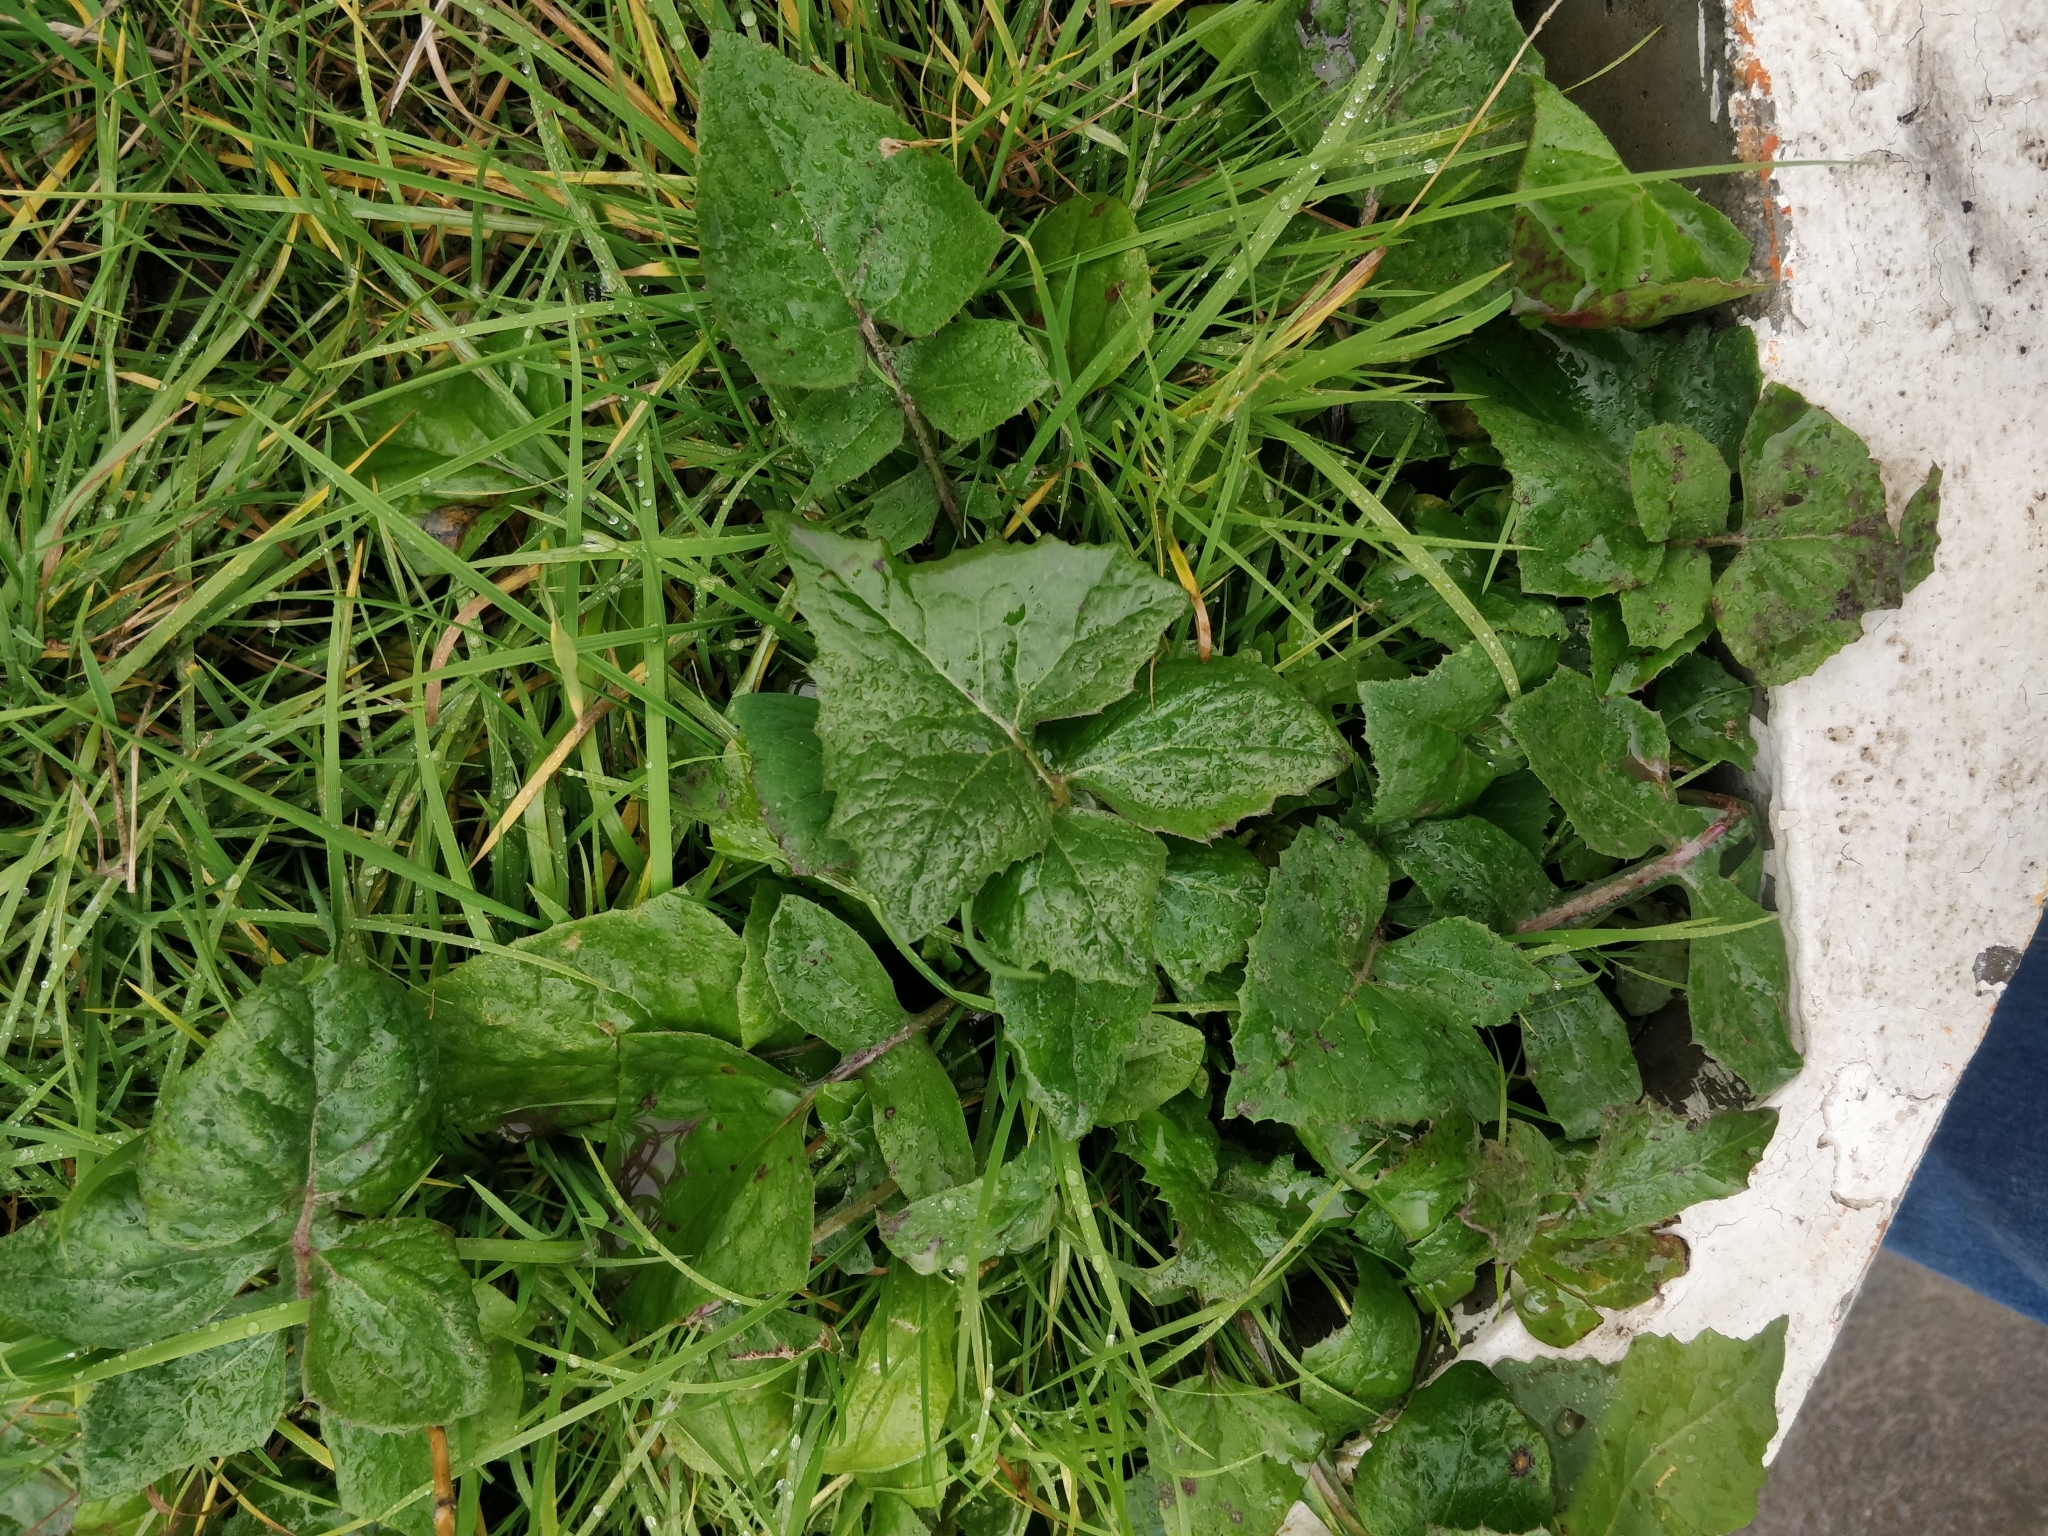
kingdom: Plantae
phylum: Tracheophyta
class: Magnoliopsida
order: Asterales
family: Asteraceae
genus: Sonchus
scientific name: Sonchus oleraceus
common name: Common sowthistle
